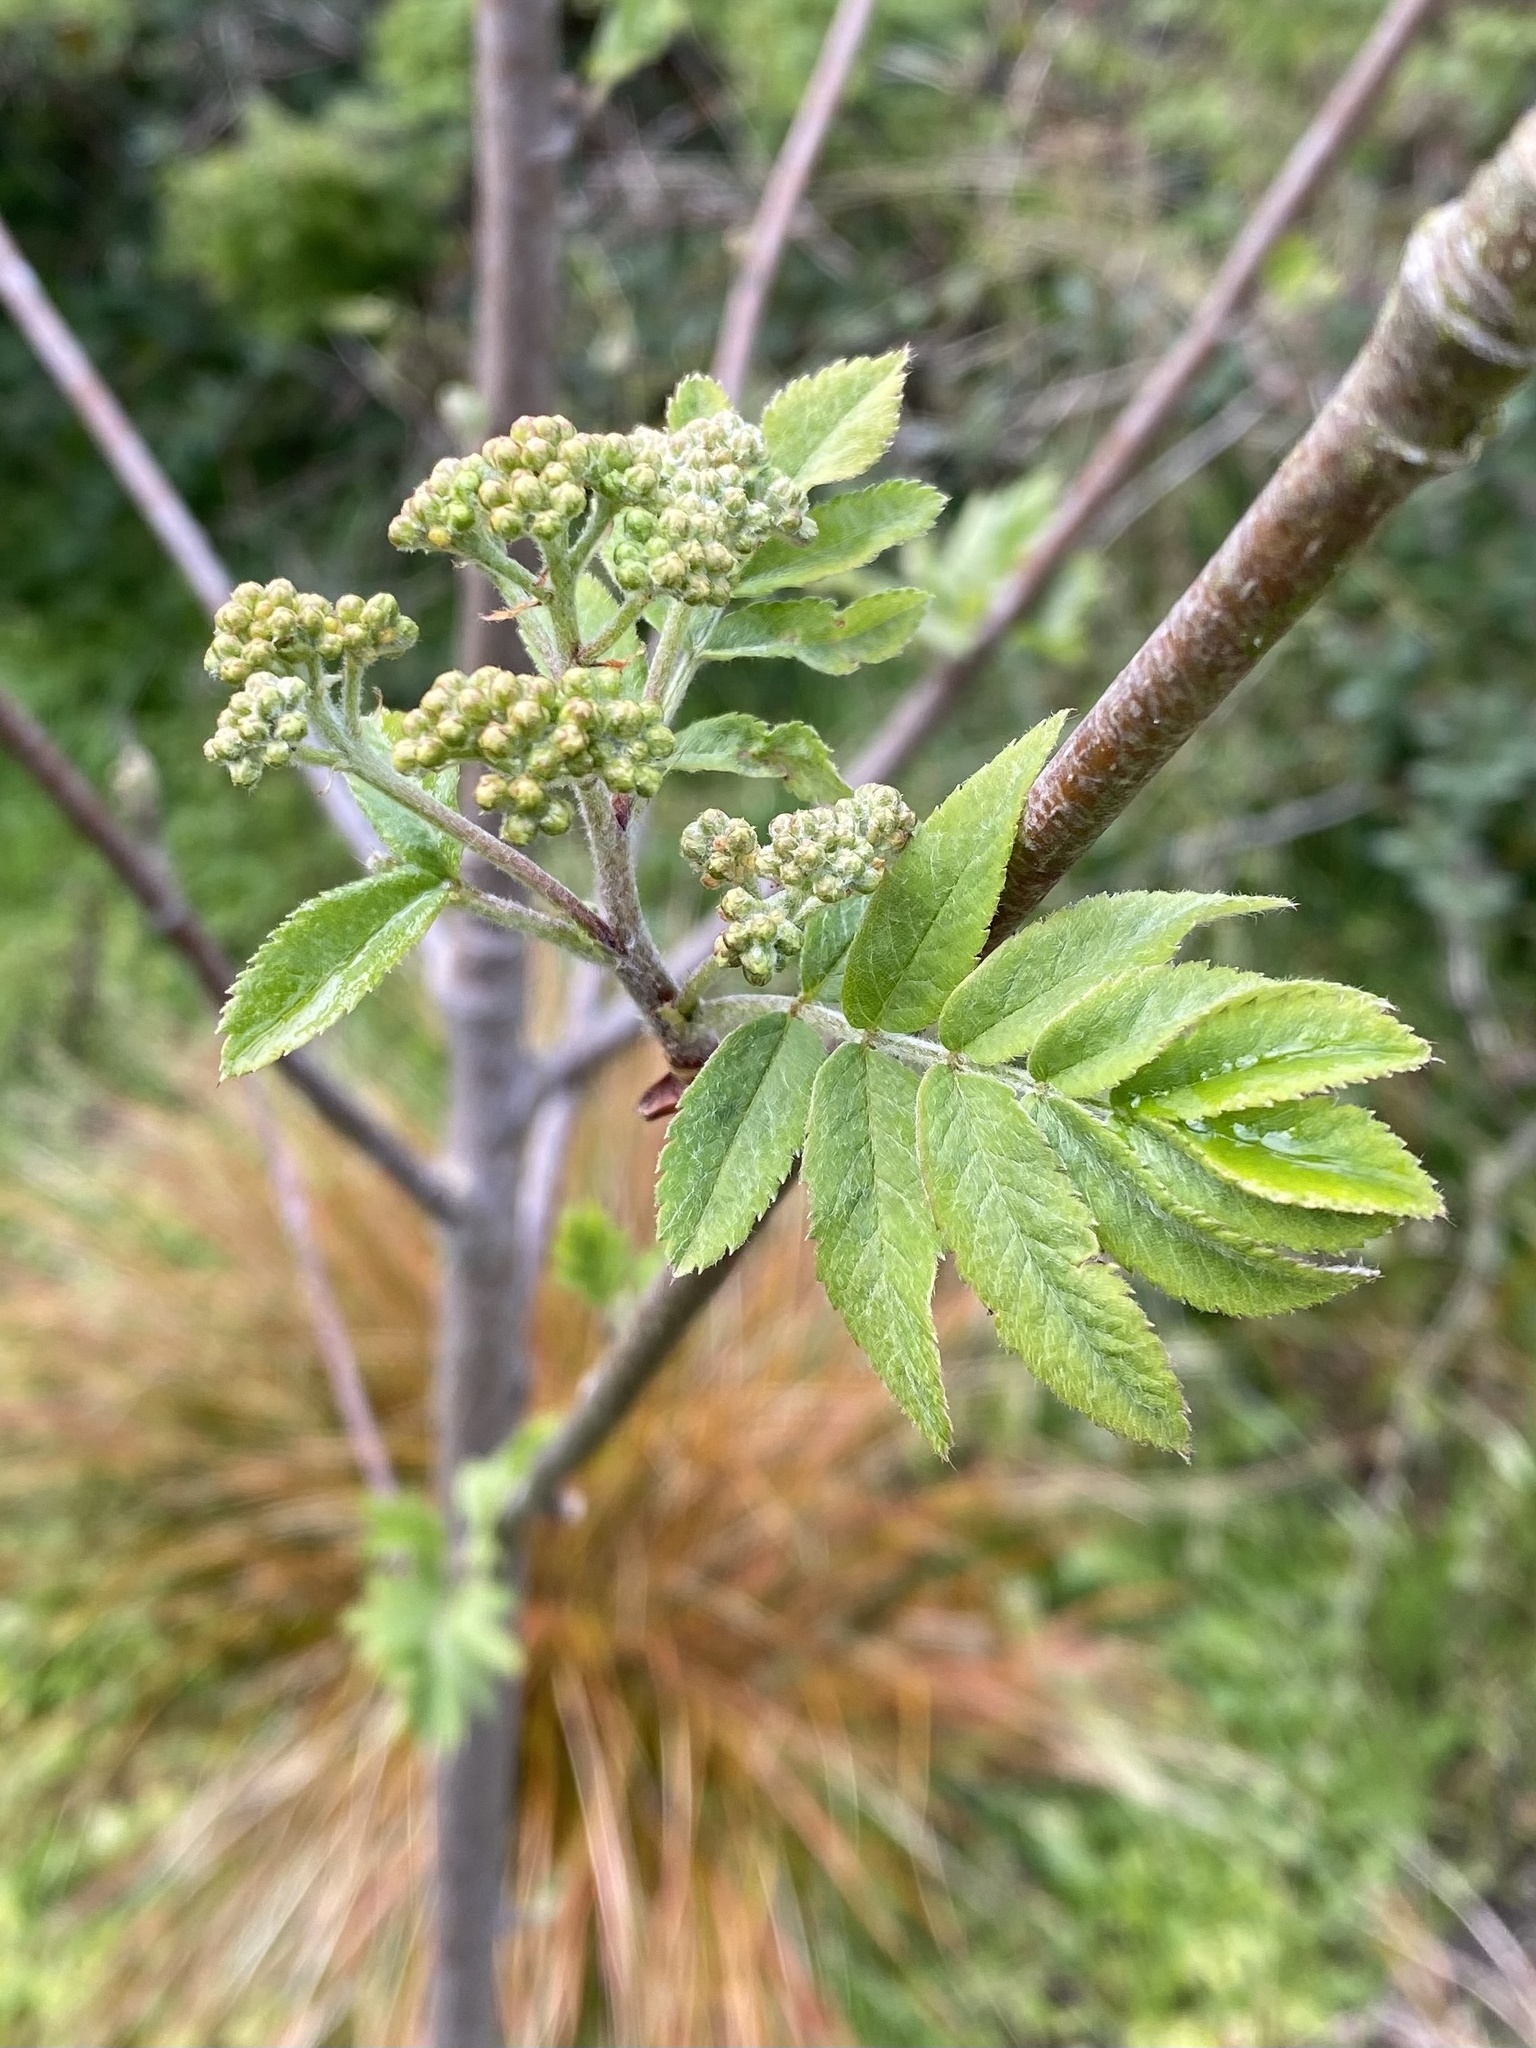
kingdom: Plantae
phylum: Tracheophyta
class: Magnoliopsida
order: Rosales
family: Rosaceae
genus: Sorbus
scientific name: Sorbus aucuparia
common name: Rowan
